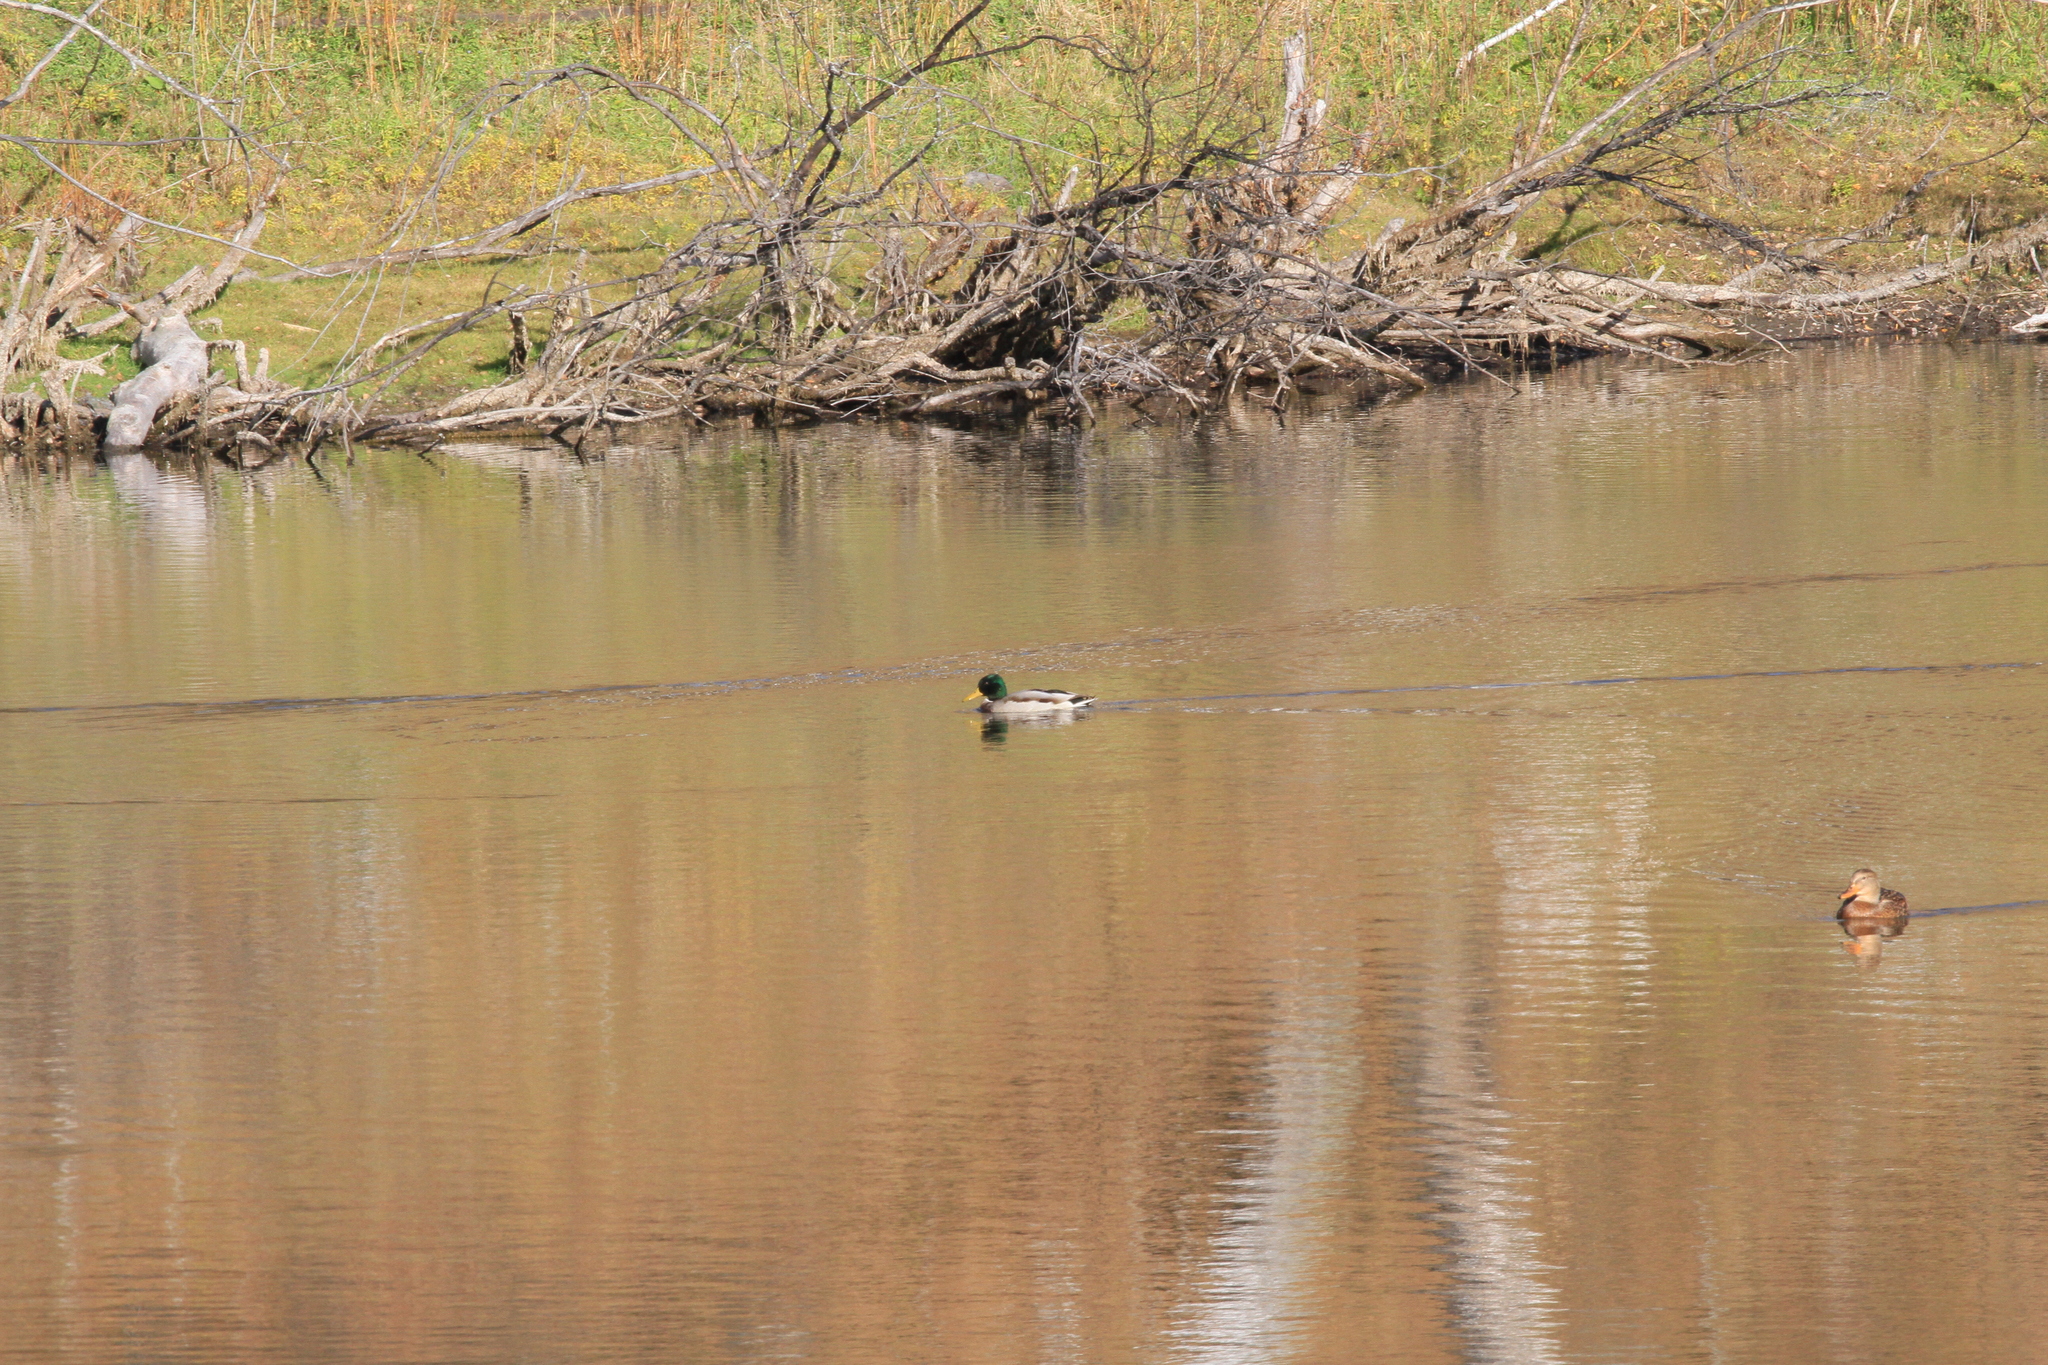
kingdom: Animalia
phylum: Chordata
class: Aves
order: Anseriformes
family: Anatidae
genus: Anas
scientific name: Anas platyrhynchos
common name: Mallard
